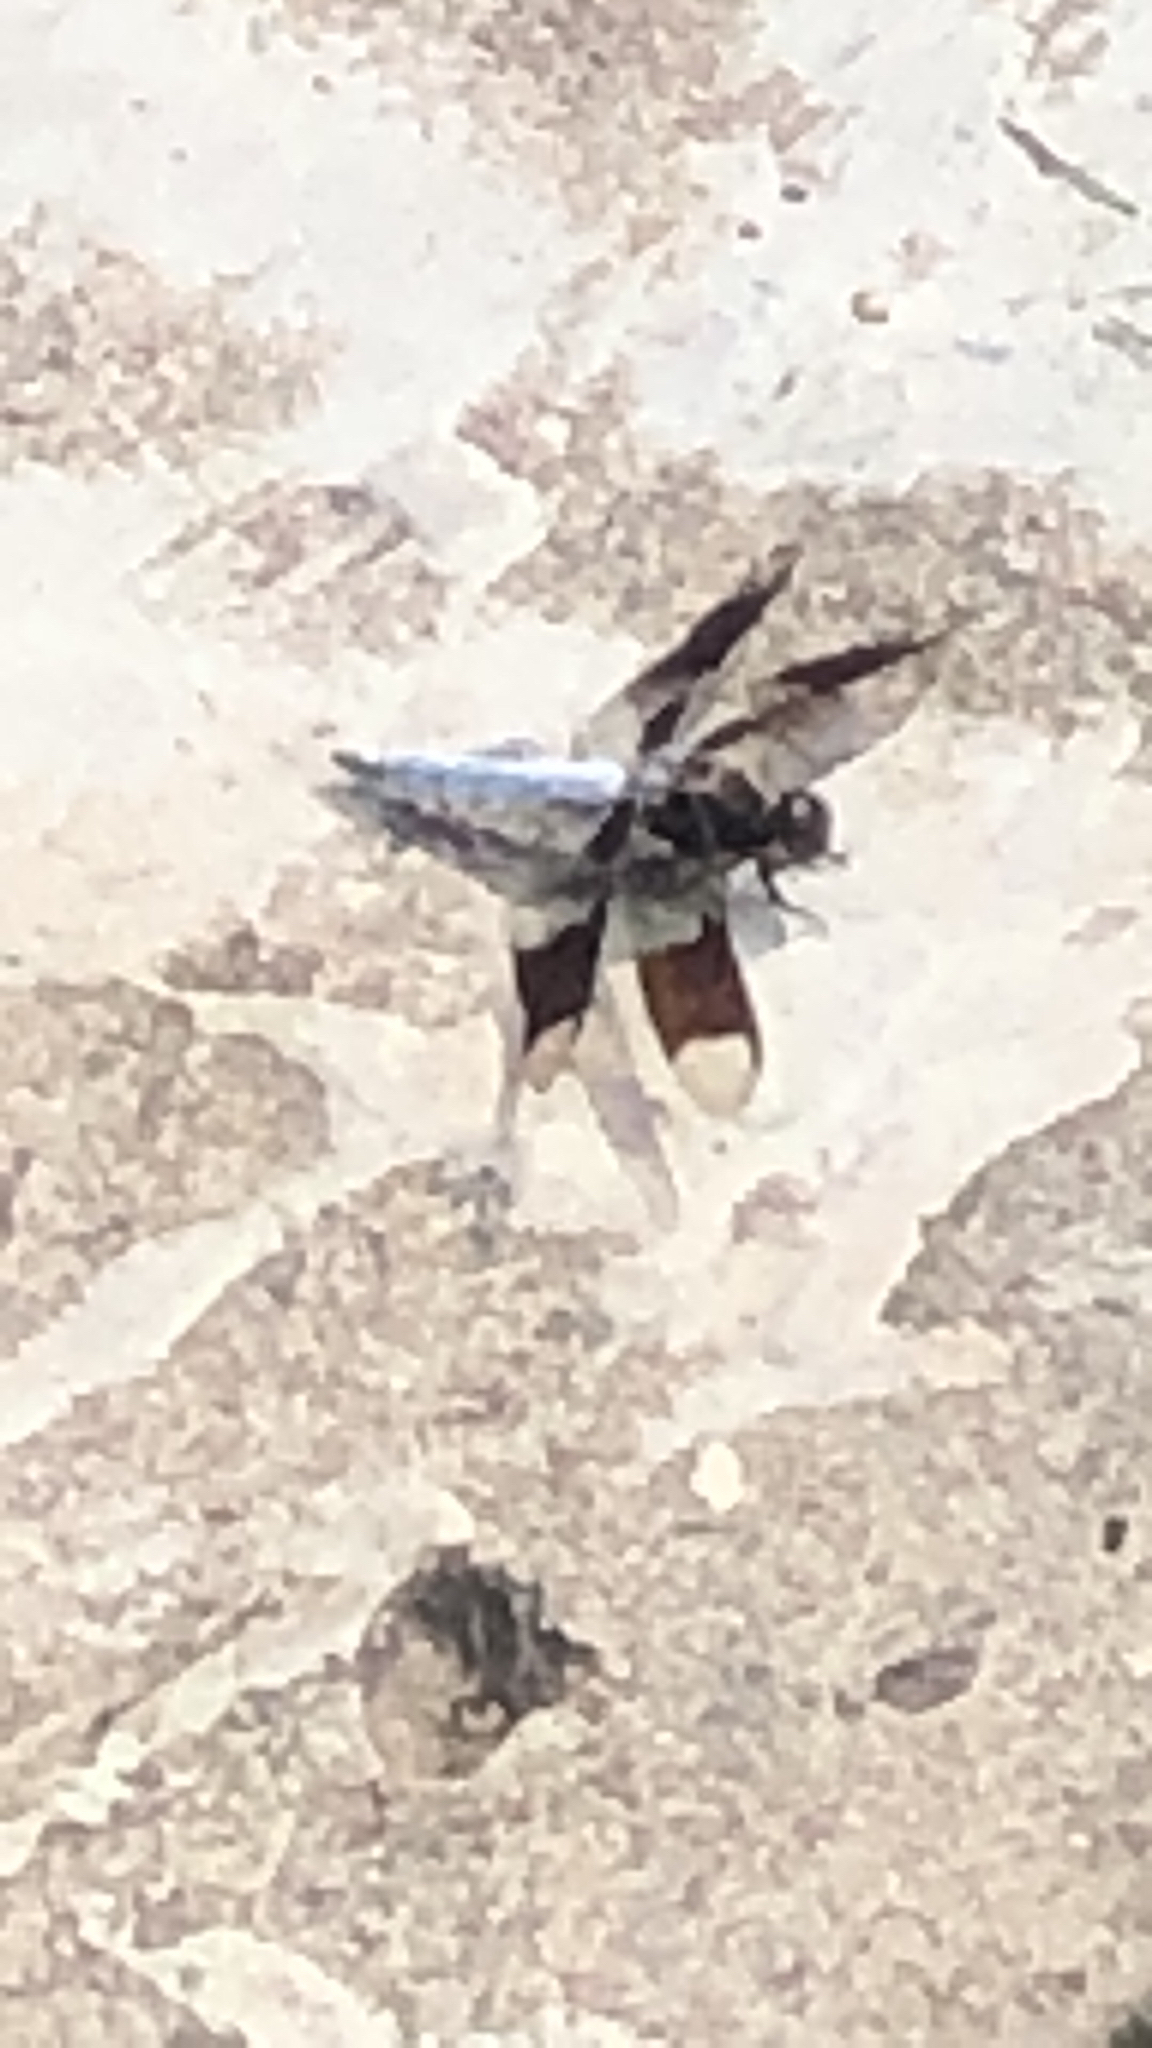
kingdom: Animalia
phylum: Arthropoda
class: Insecta
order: Odonata
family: Libellulidae
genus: Plathemis
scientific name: Plathemis lydia
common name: Common whitetail
